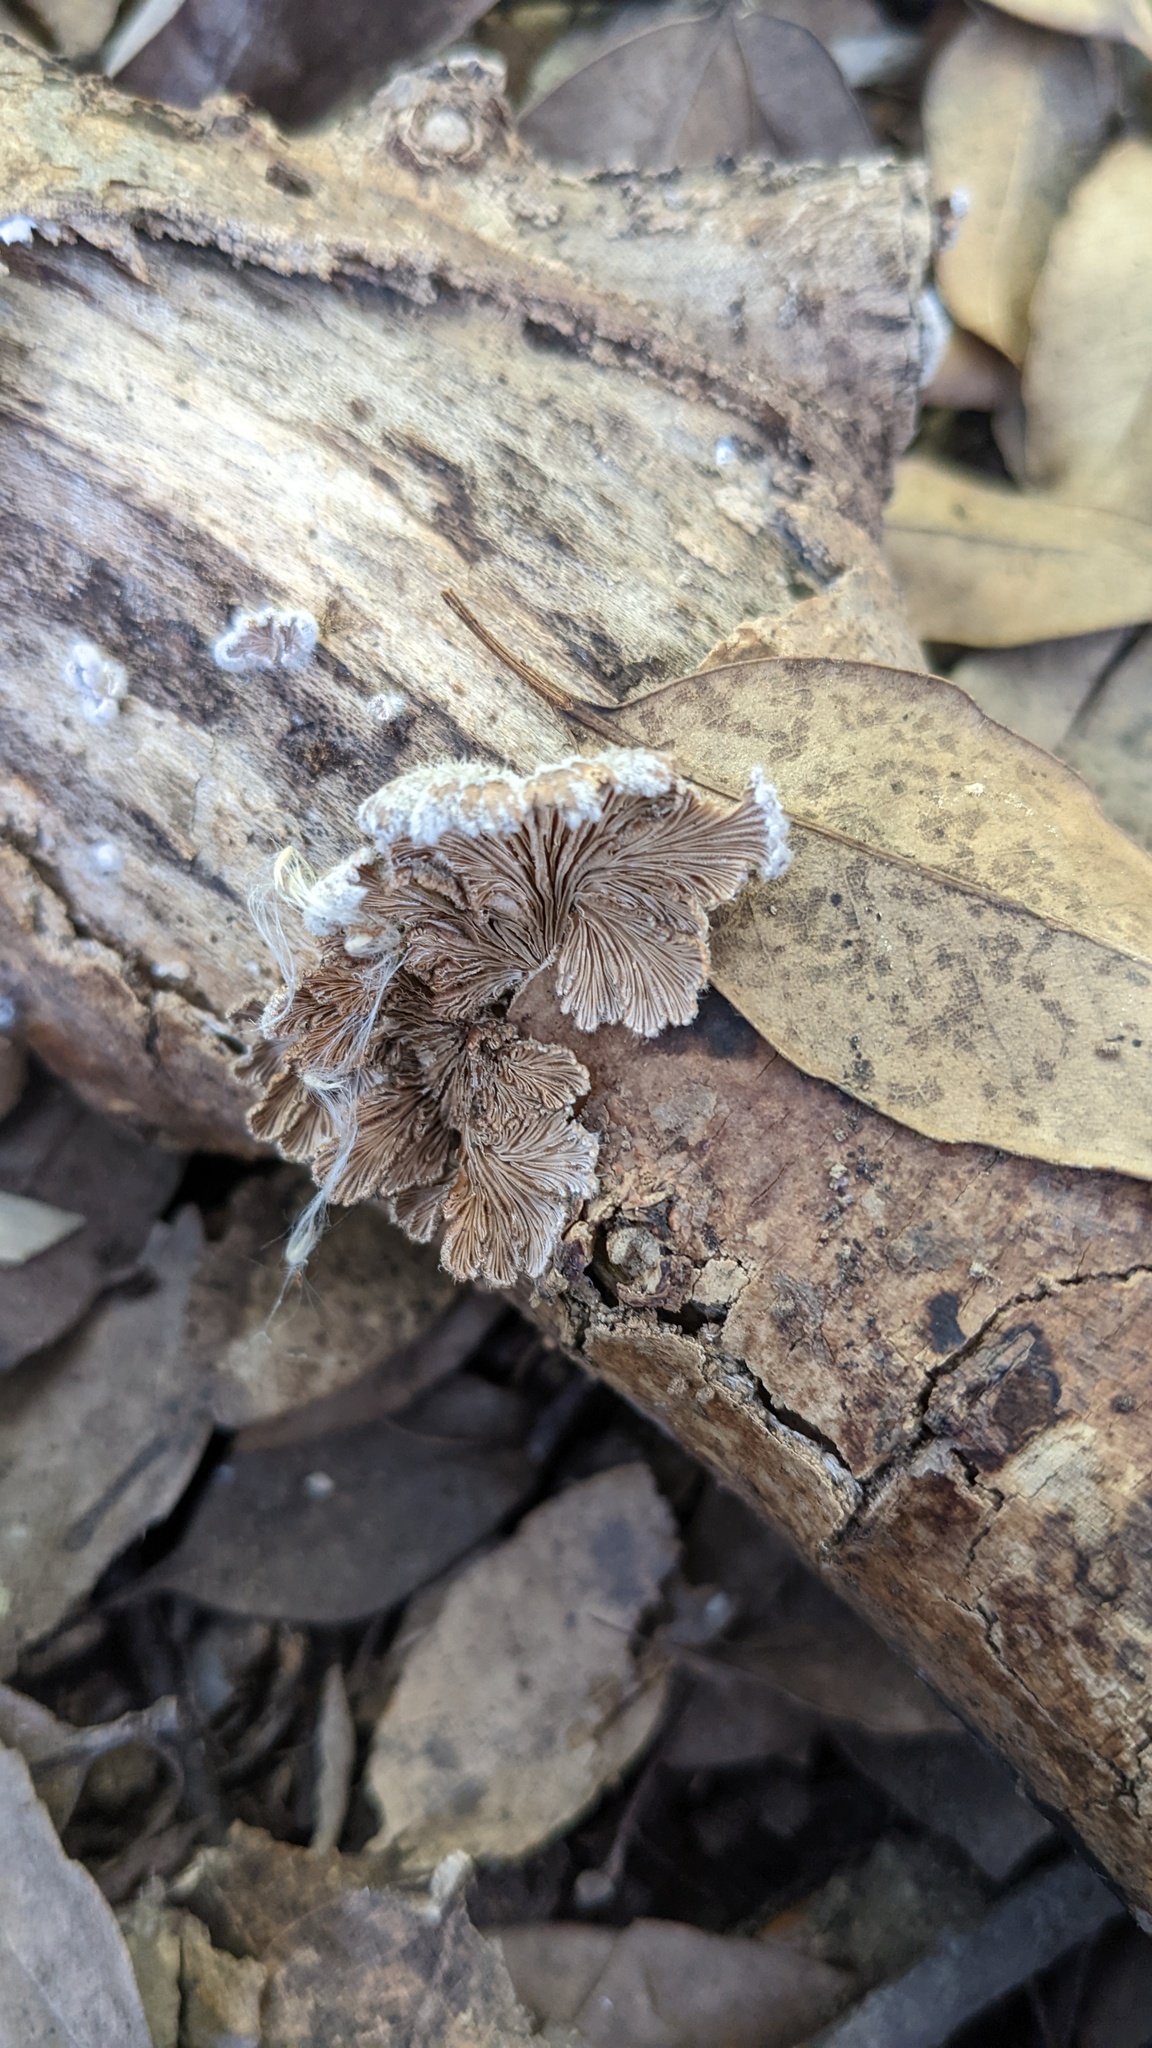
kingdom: Fungi
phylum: Basidiomycota
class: Agaricomycetes
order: Agaricales
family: Schizophyllaceae
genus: Schizophyllum
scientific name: Schizophyllum commune
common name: Common porecrust
